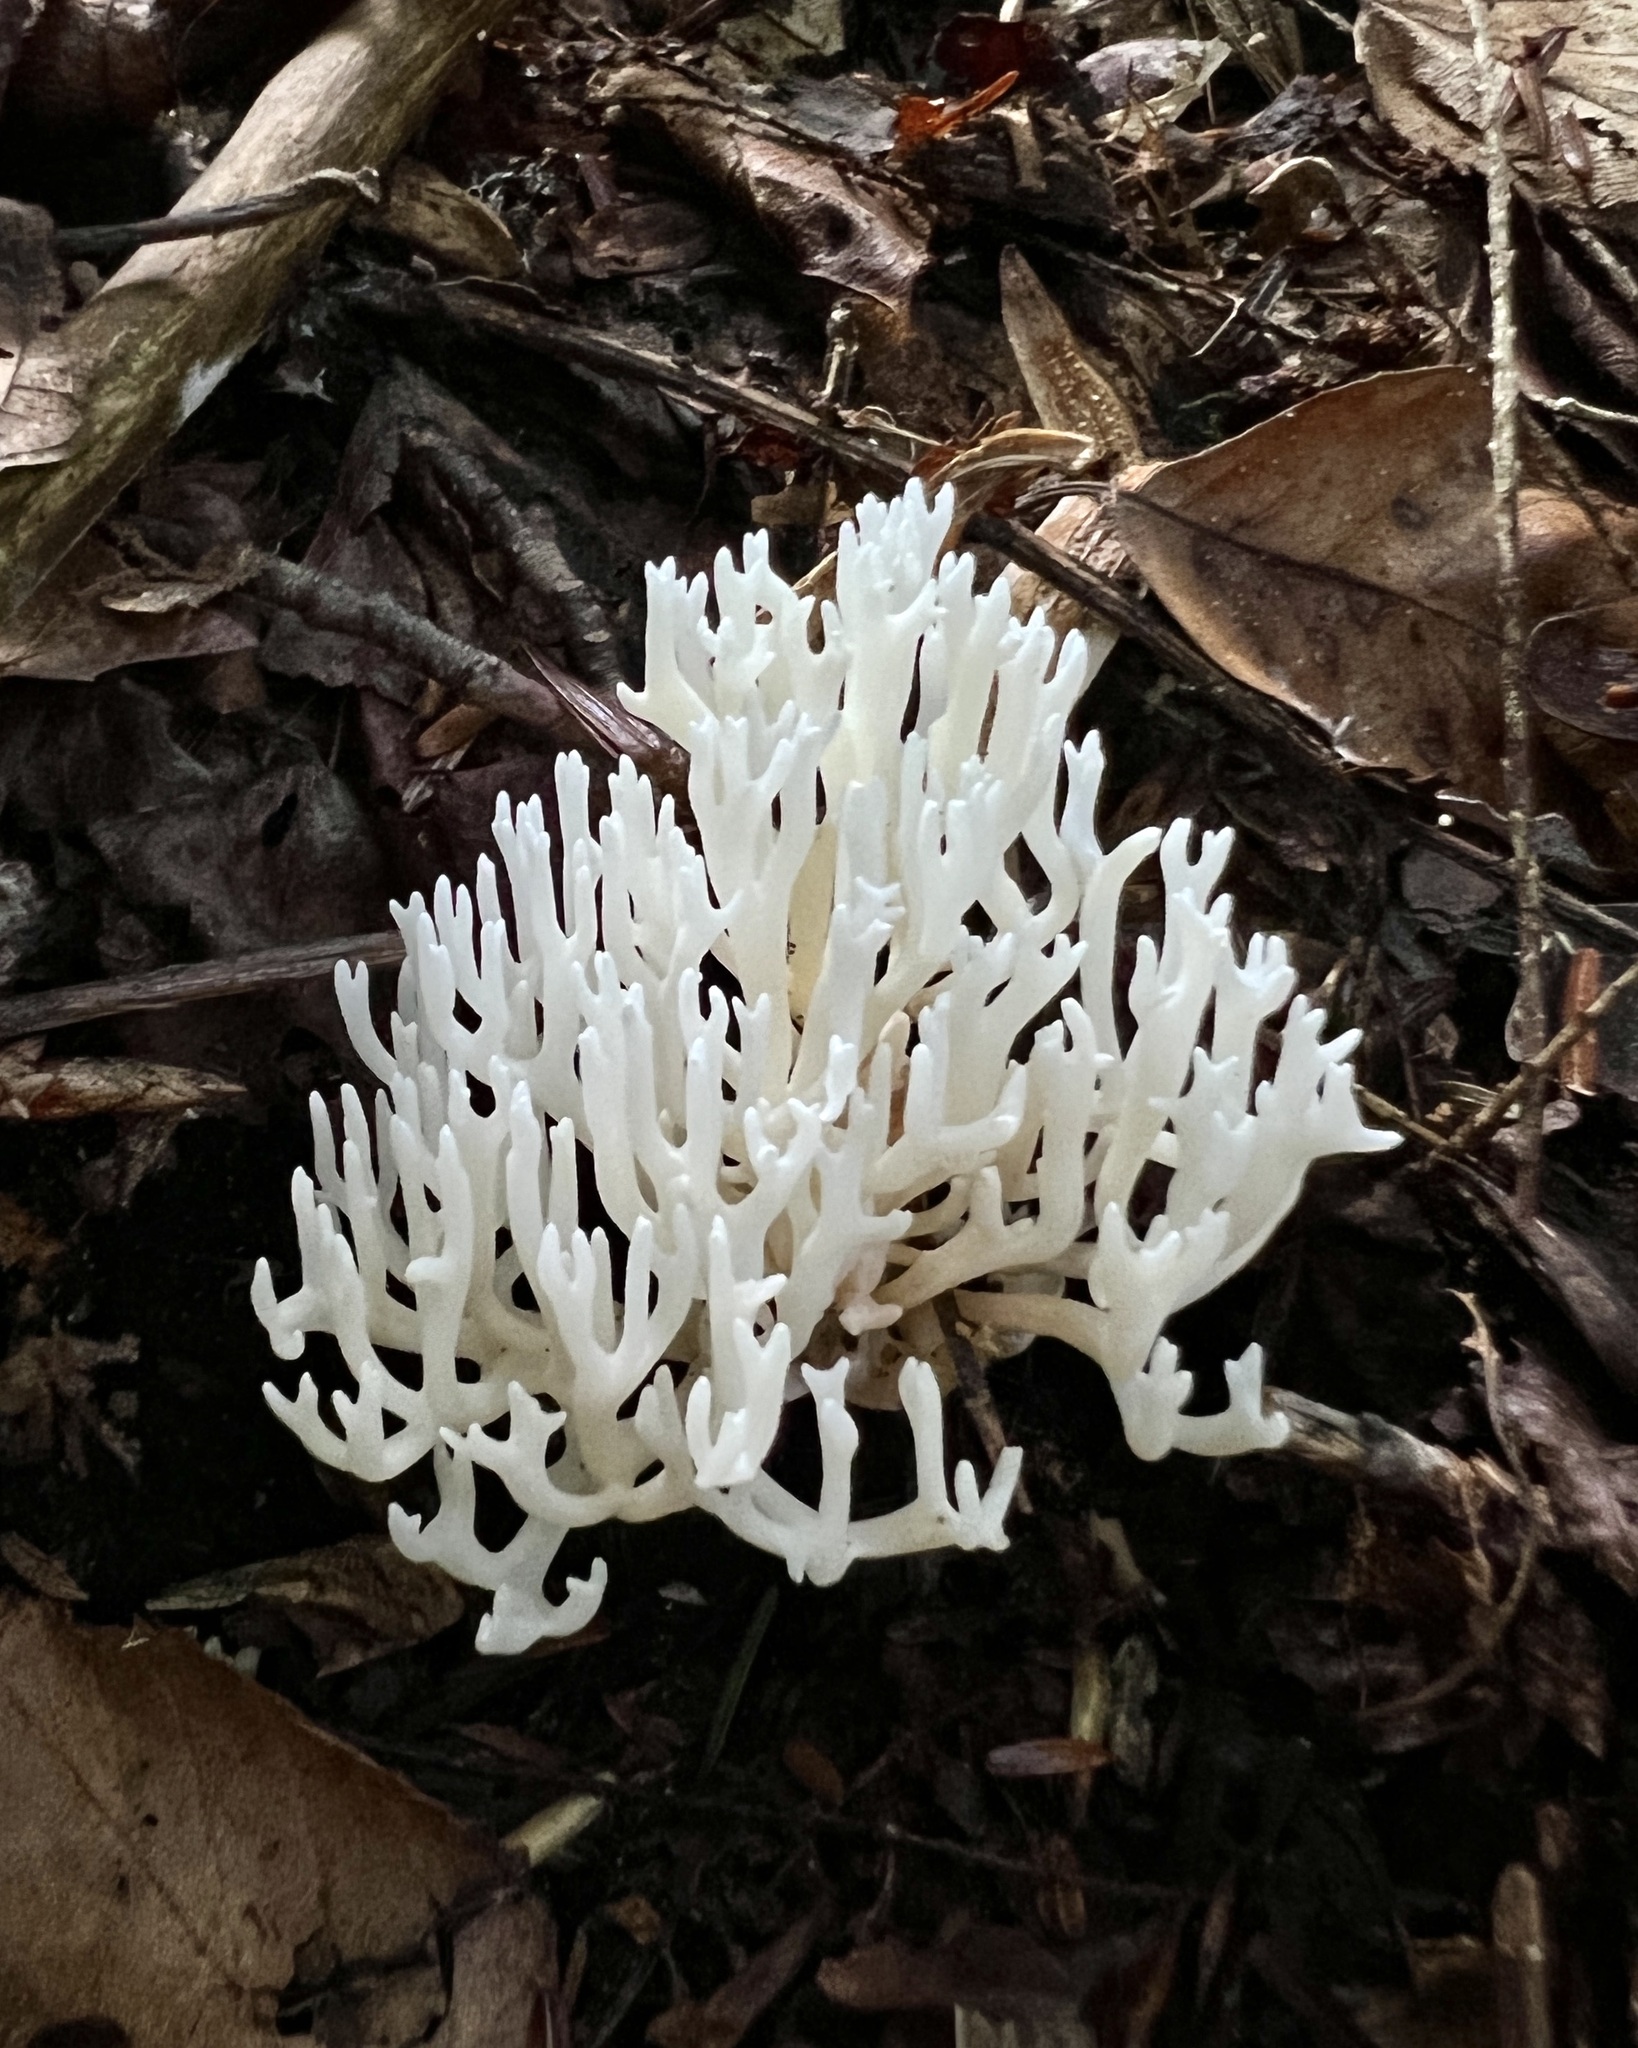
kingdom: Fungi
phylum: Basidiomycota
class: Agaricomycetes
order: Agaricales
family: Clavariaceae
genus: Ramariopsis
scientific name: Ramariopsis kunzei
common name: Ivory coral
